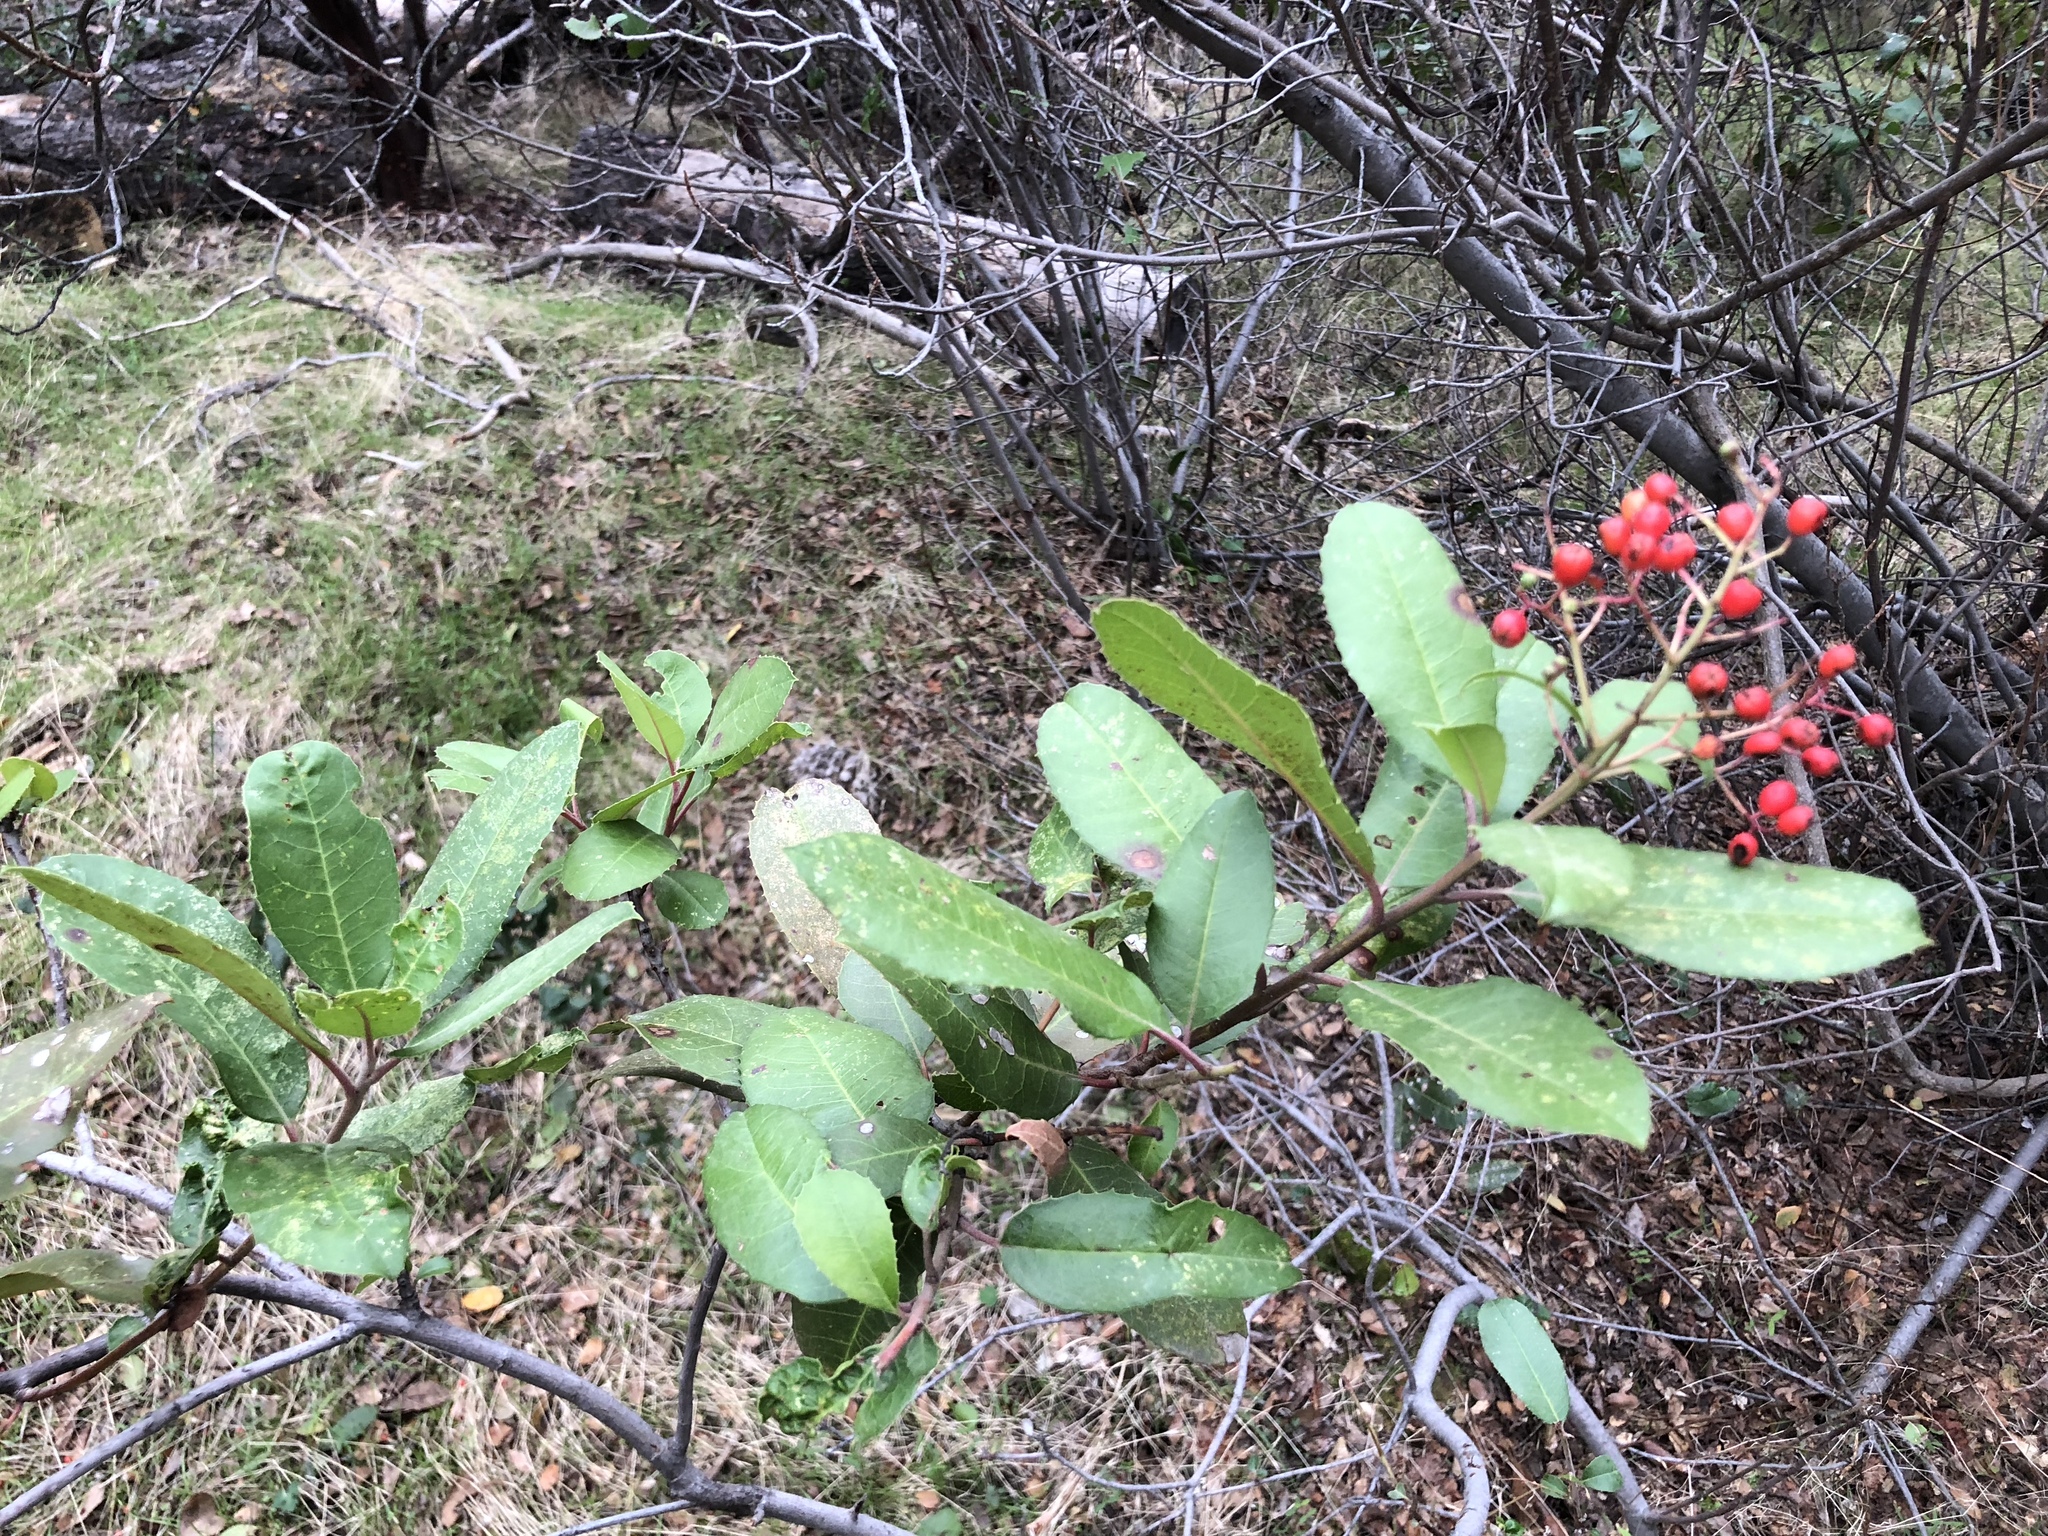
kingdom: Plantae
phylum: Tracheophyta
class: Magnoliopsida
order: Rosales
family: Rosaceae
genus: Heteromeles
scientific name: Heteromeles arbutifolia
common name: California-holly
